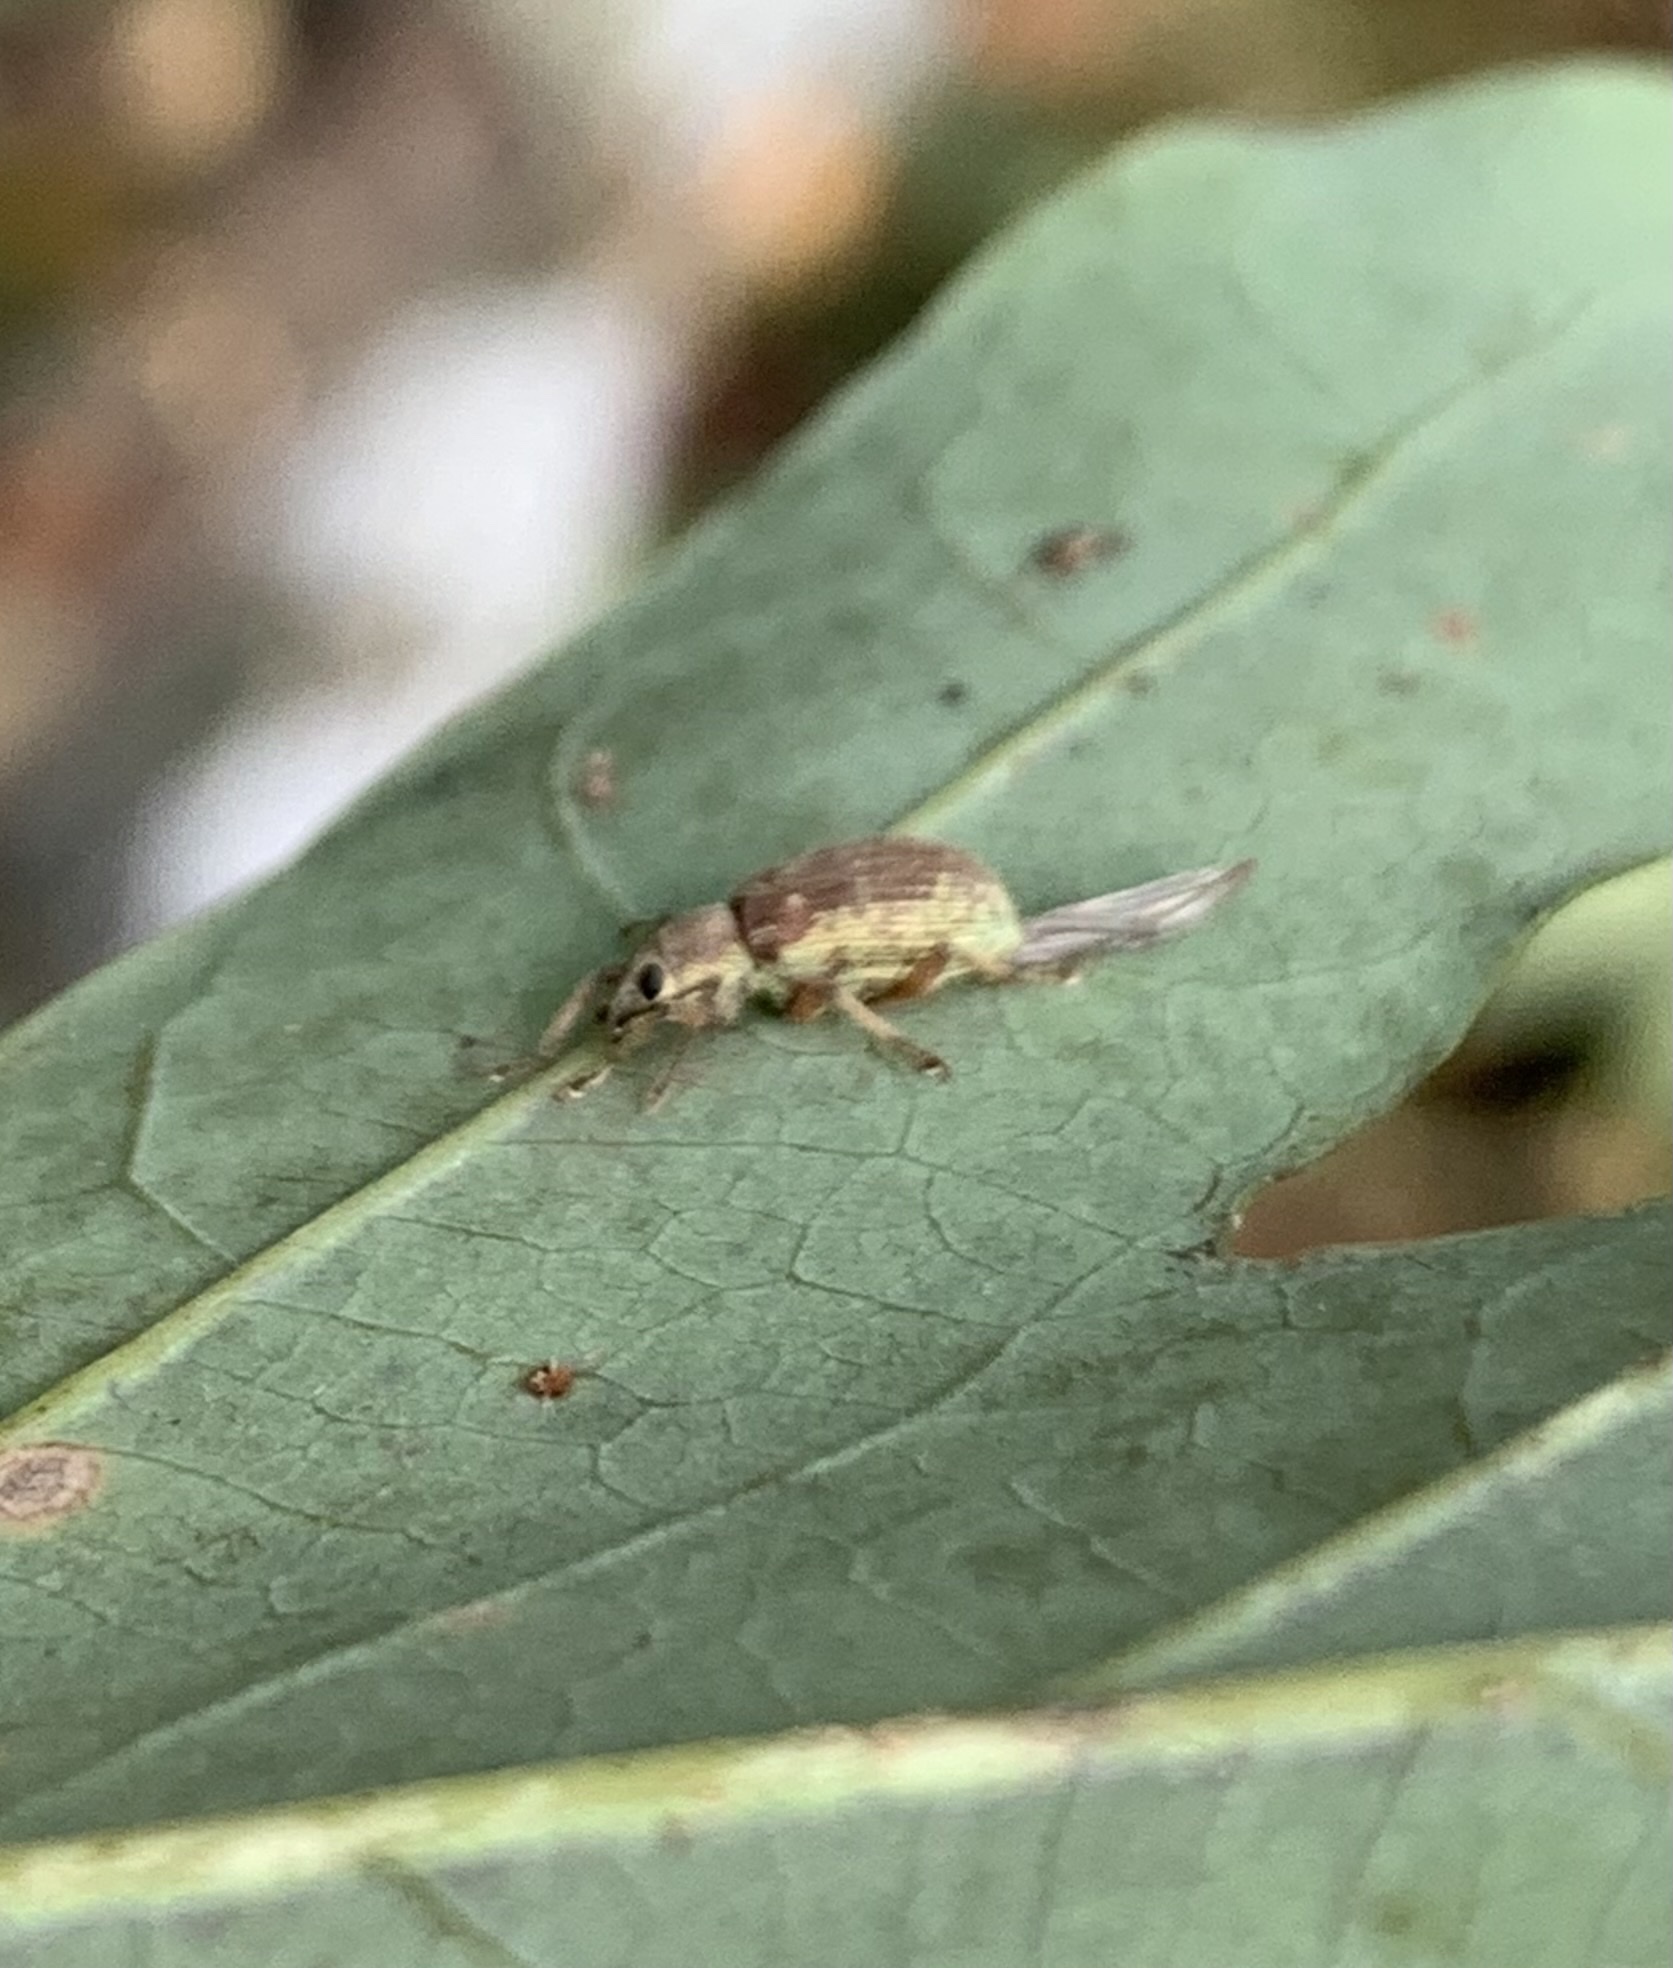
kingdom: Animalia
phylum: Arthropoda
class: Insecta
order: Coleoptera
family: Curculionidae
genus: Cyrtepistomus
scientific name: Cyrtepistomus castaneus
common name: Weevil
